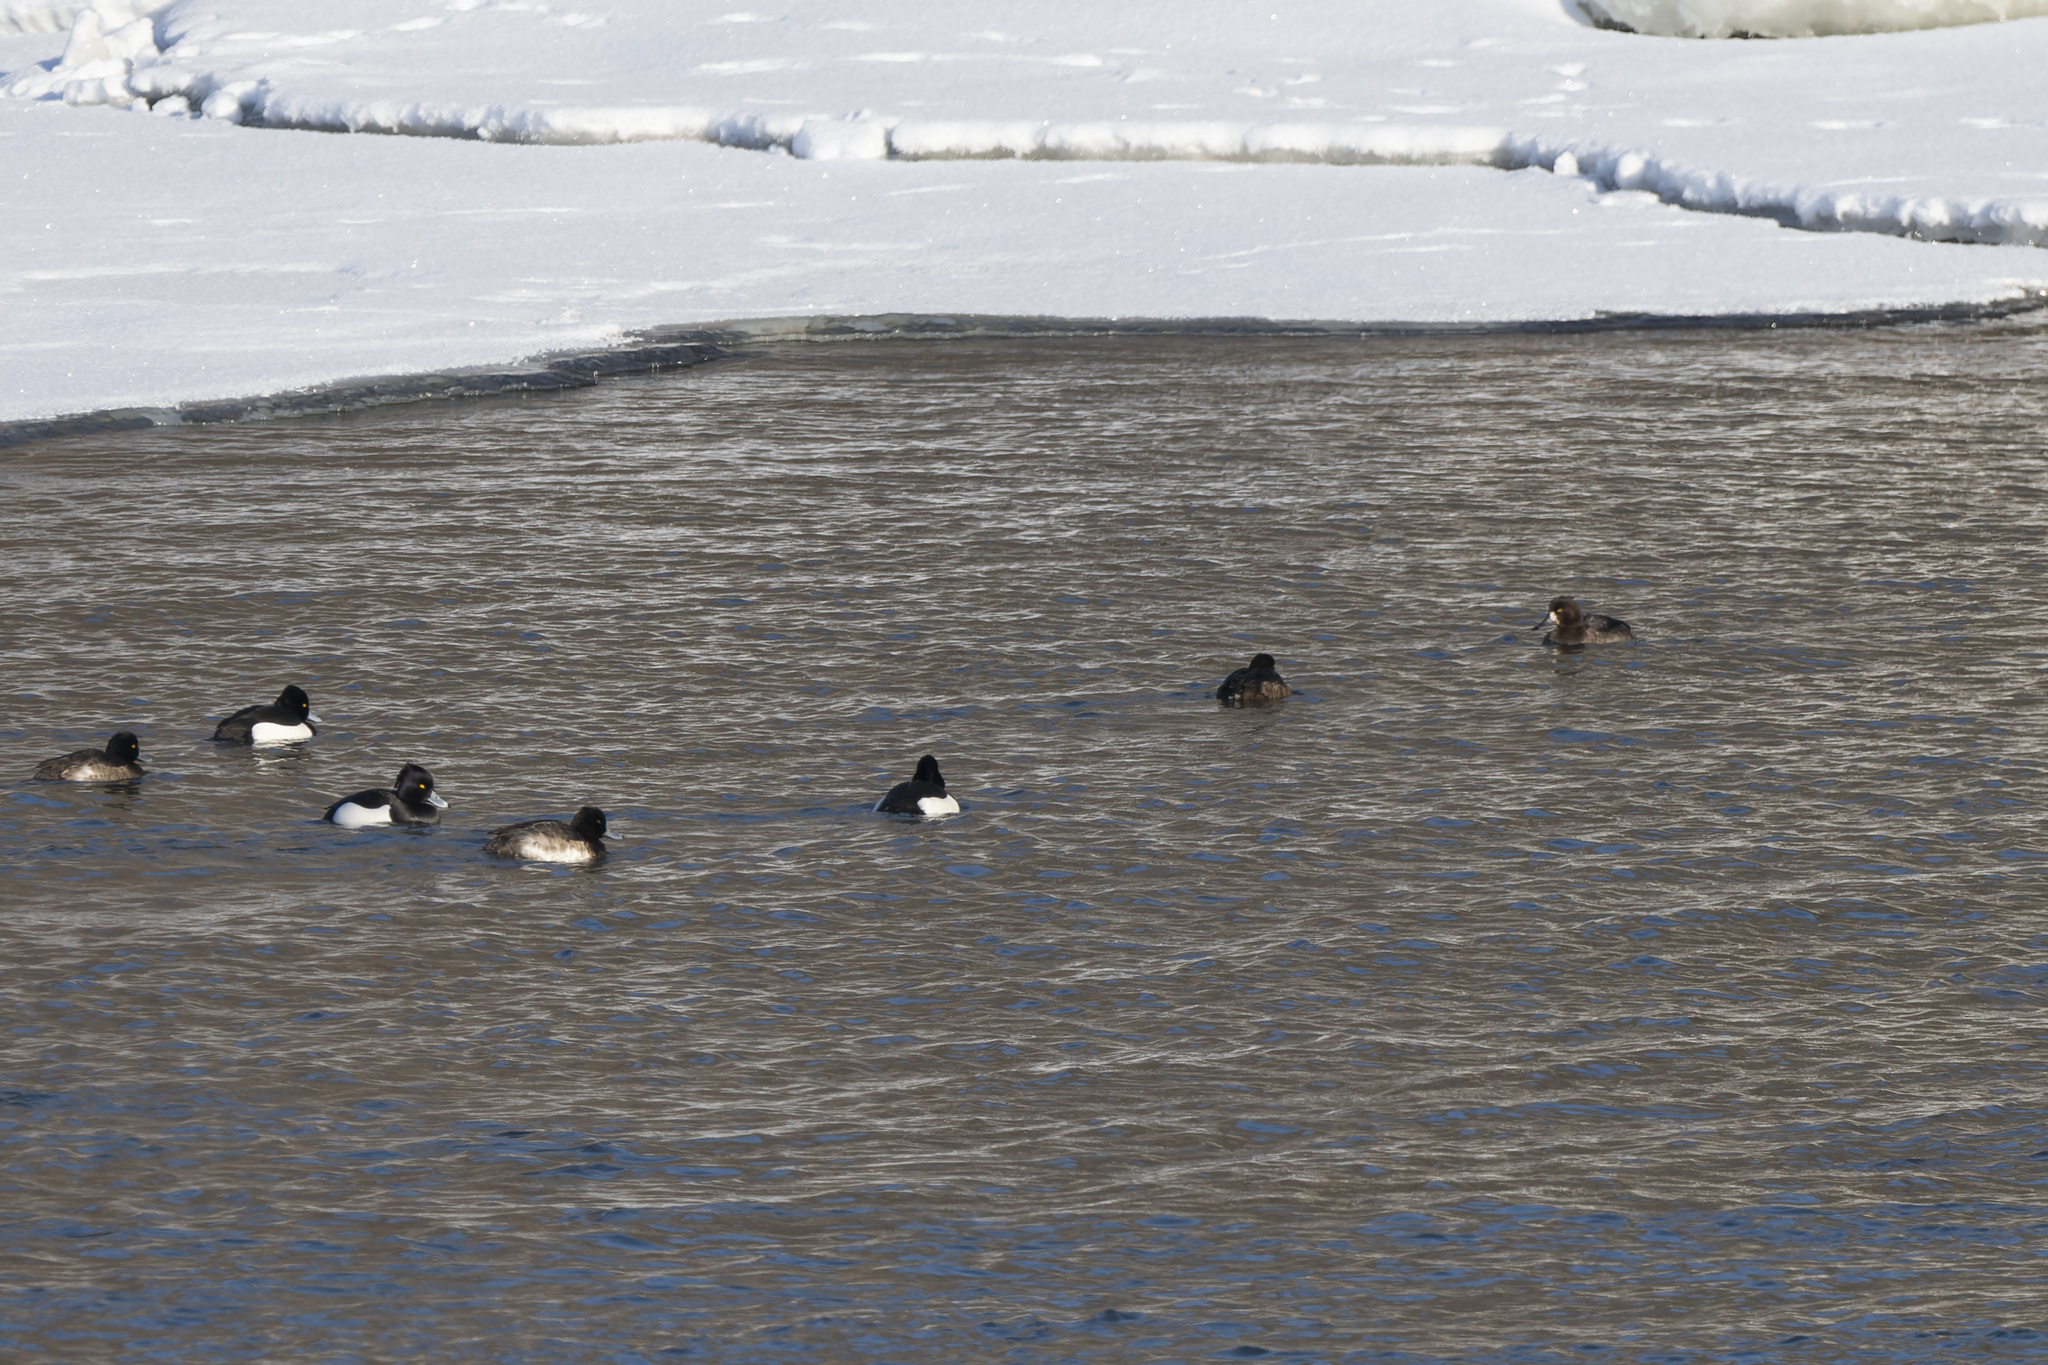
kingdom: Animalia
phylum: Chordata
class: Aves
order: Anseriformes
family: Anatidae
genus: Aythya
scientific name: Aythya fuligula
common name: Tufted duck
